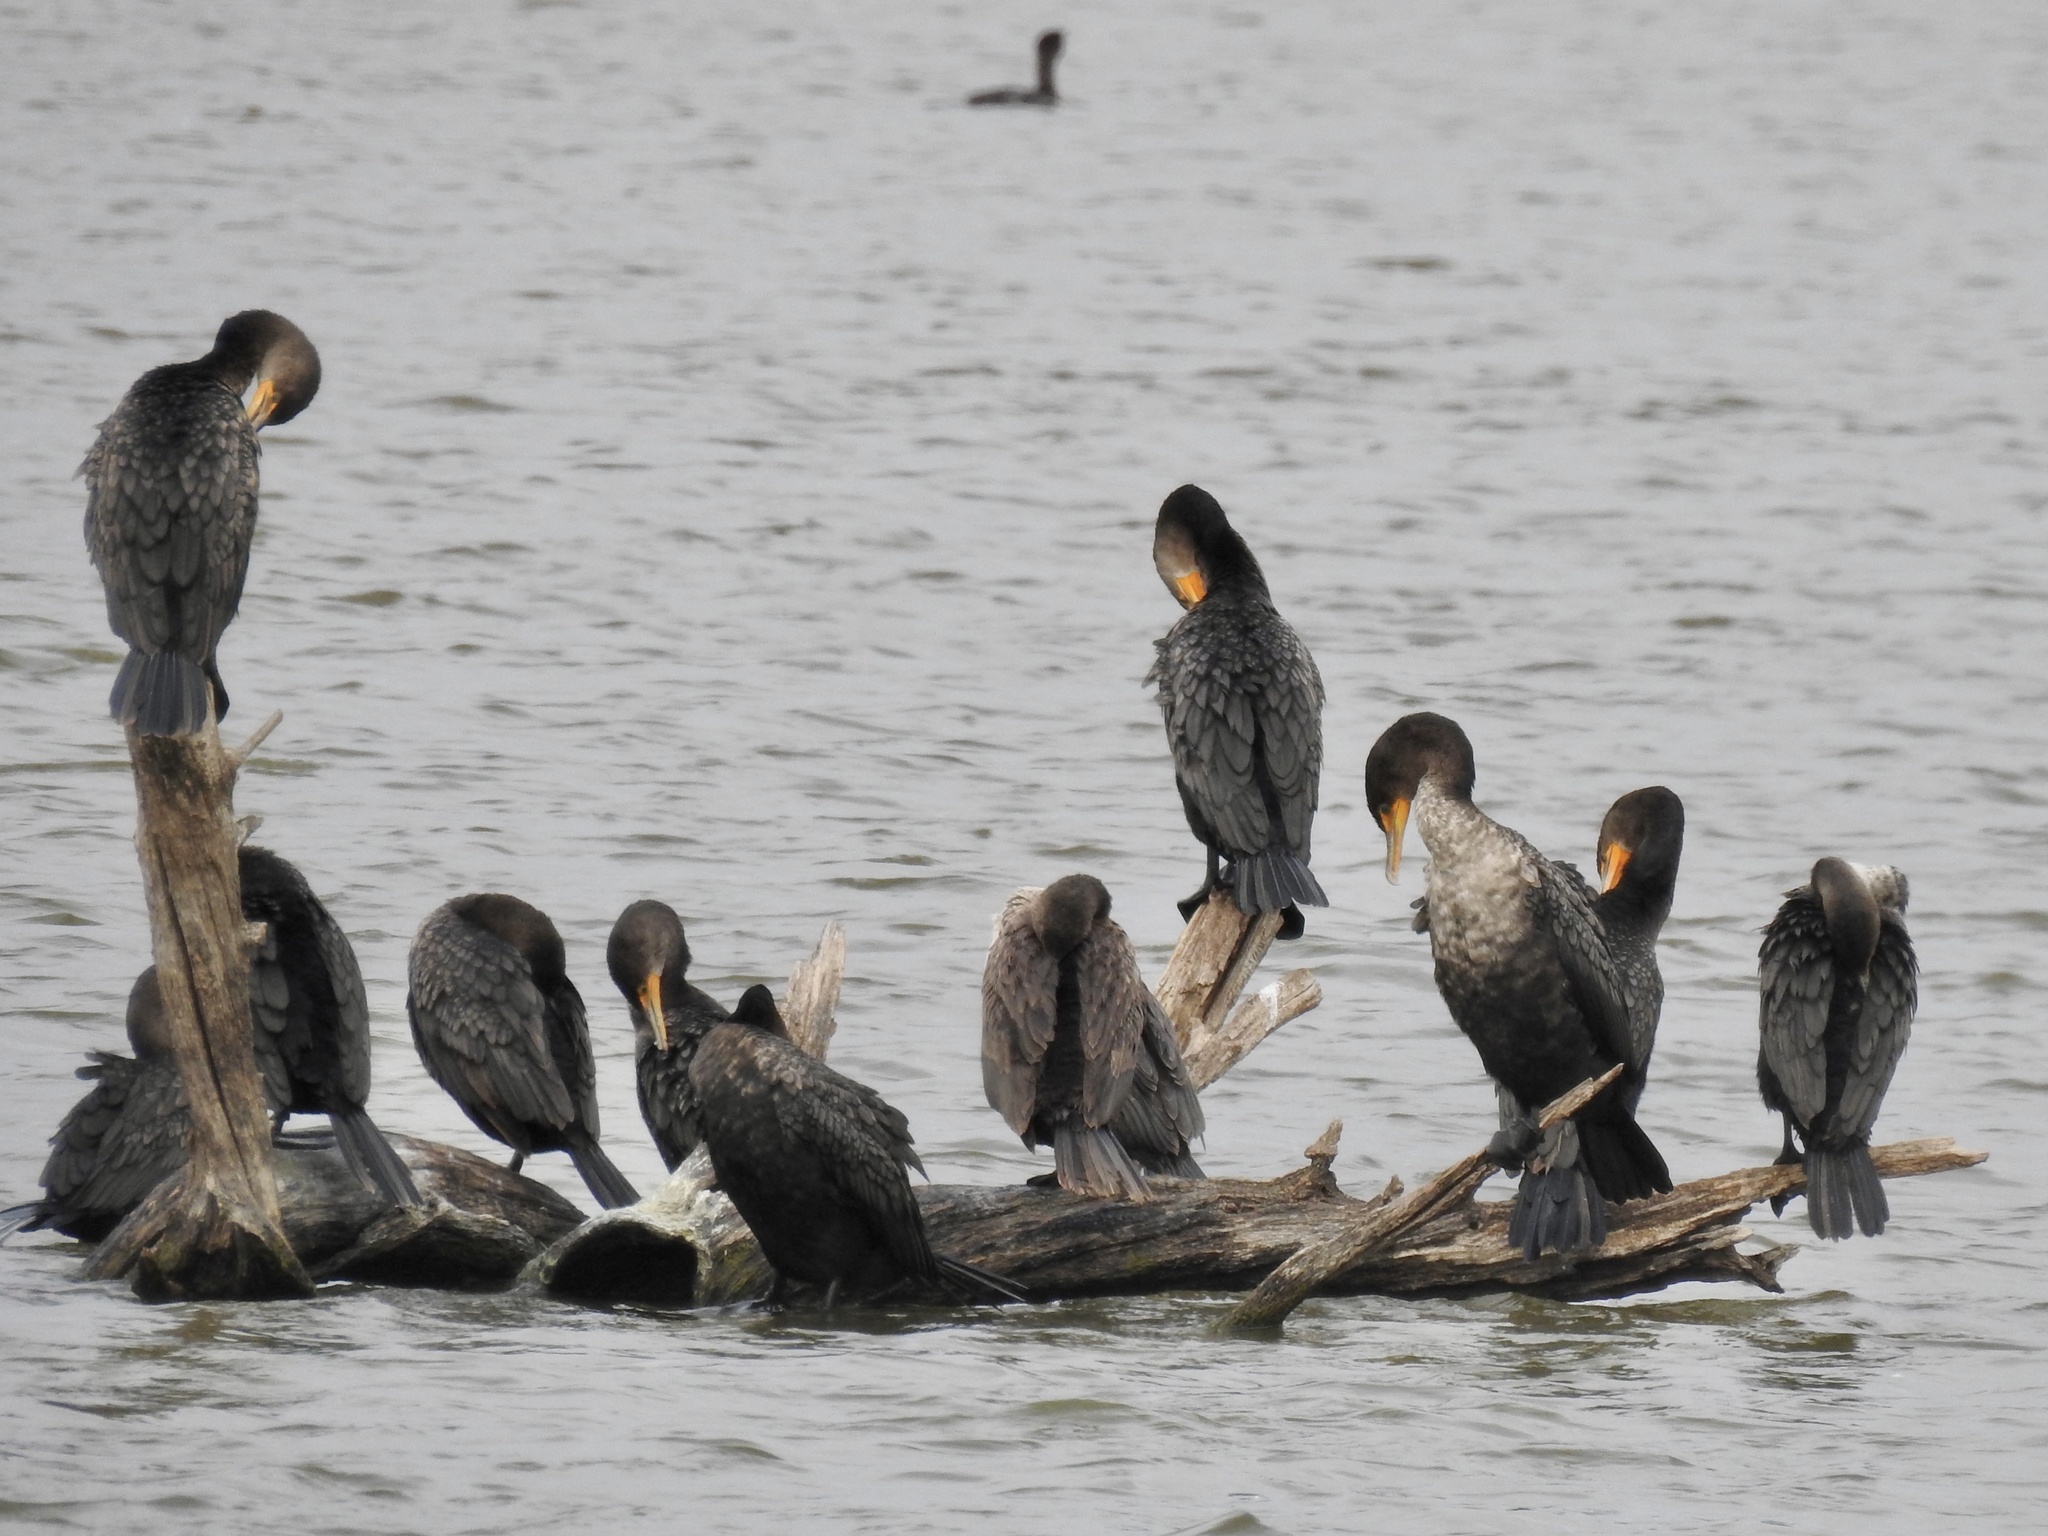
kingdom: Animalia
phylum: Chordata
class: Aves
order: Suliformes
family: Phalacrocoracidae
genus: Phalacrocorax
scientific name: Phalacrocorax auritus
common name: Double-crested cormorant
